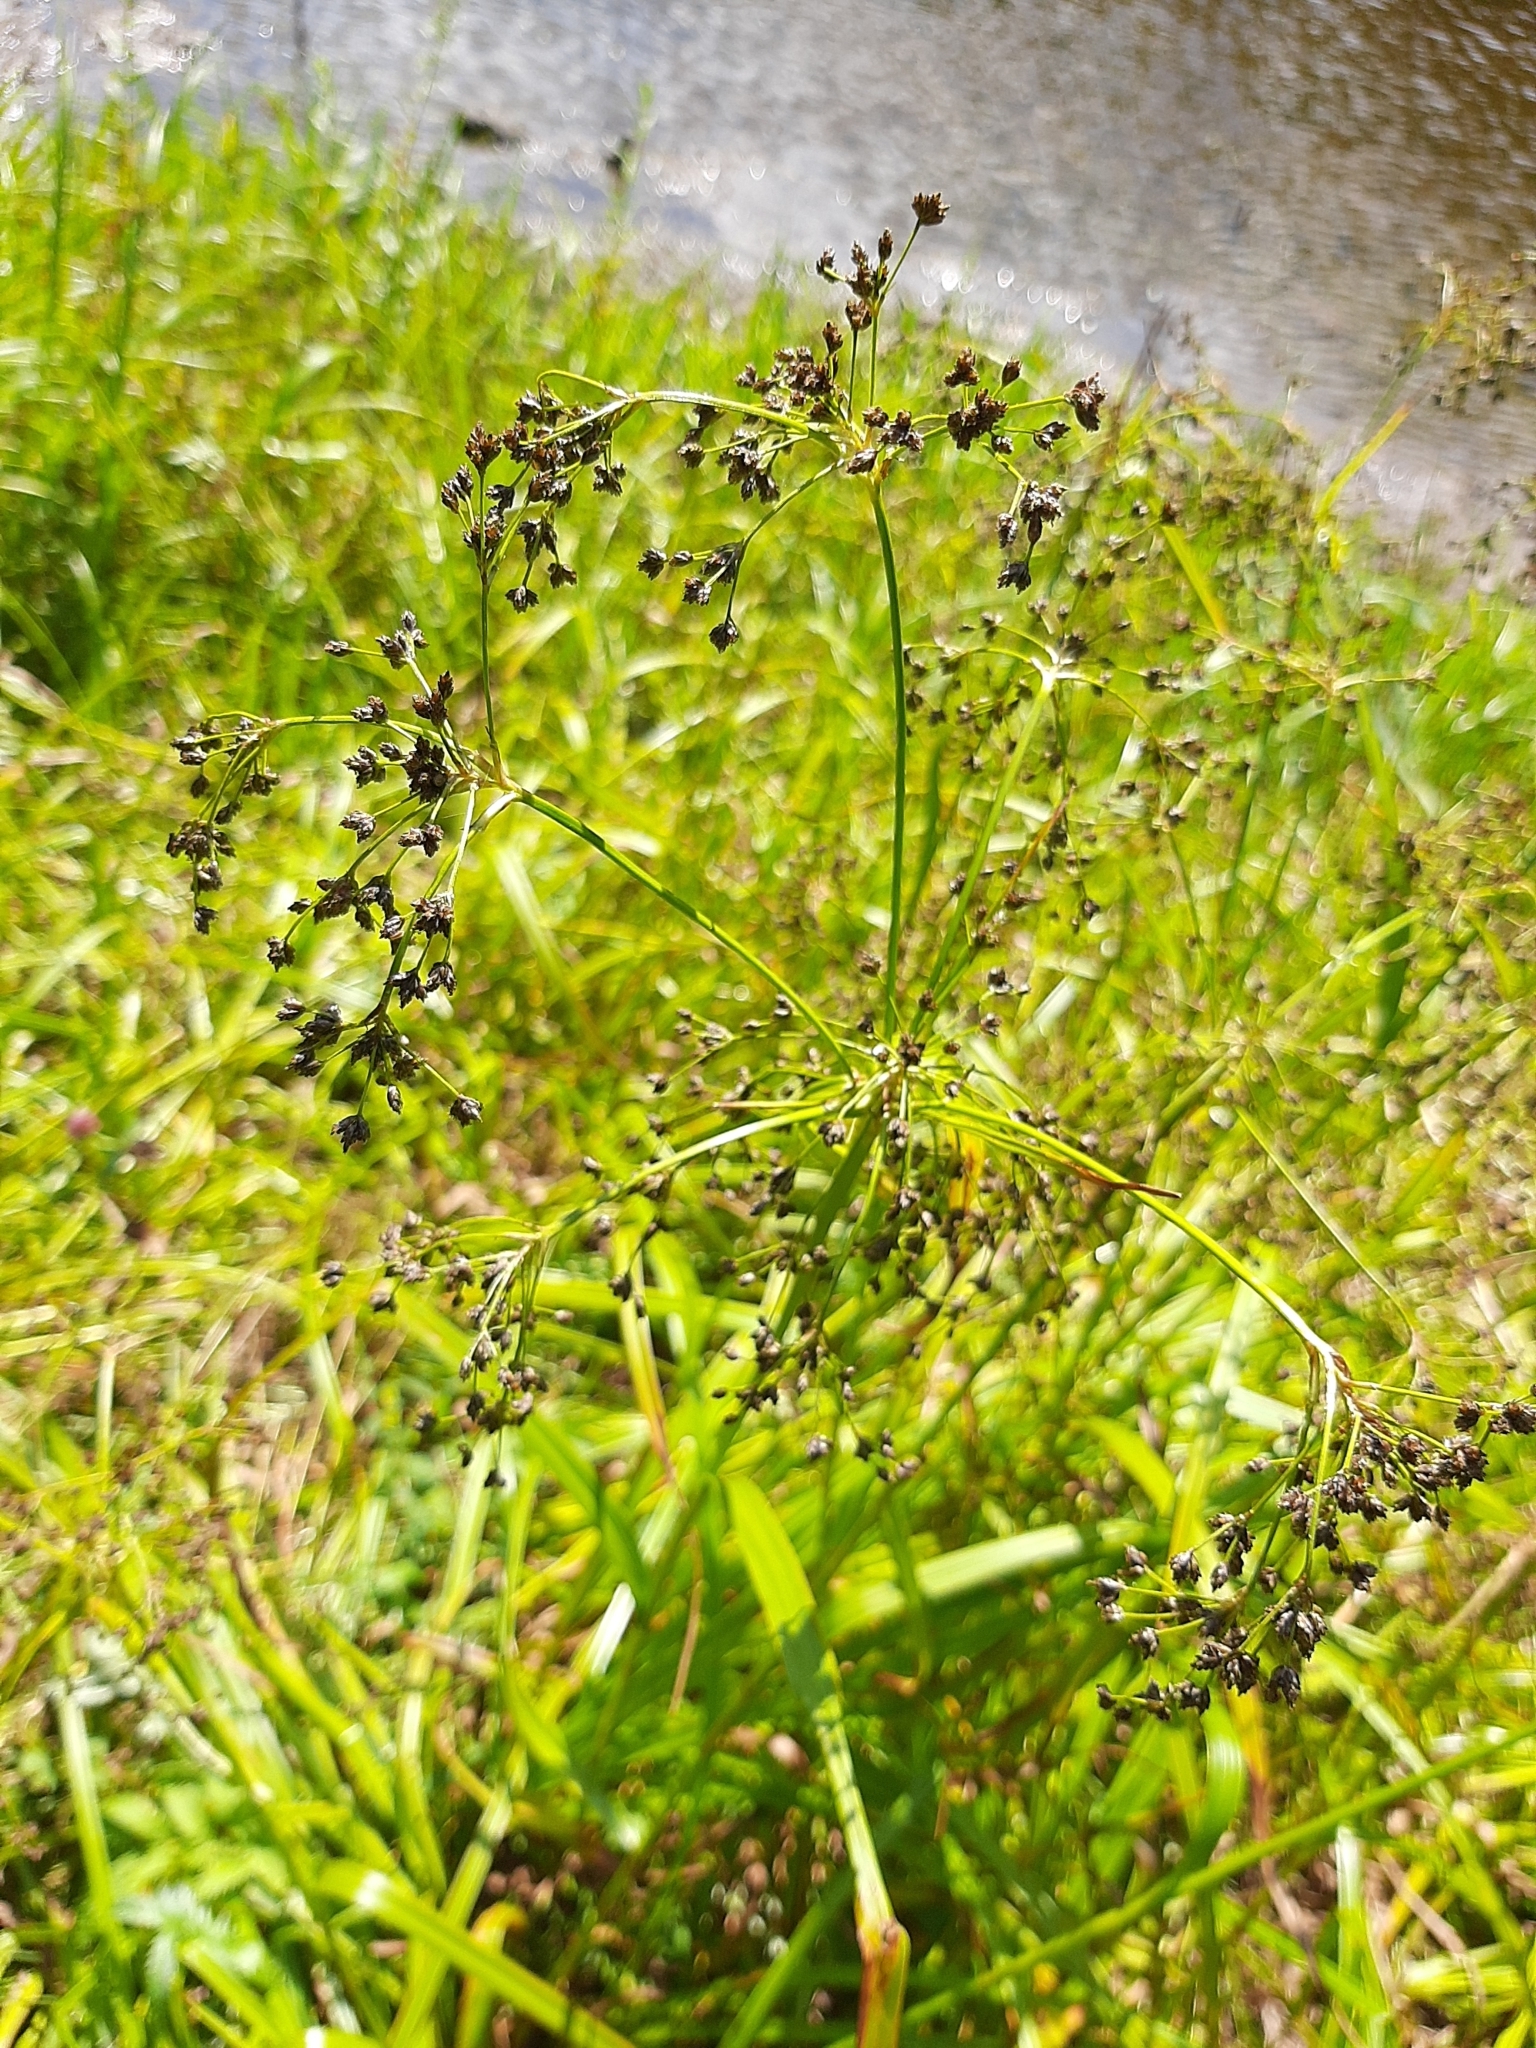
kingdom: Plantae
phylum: Tracheophyta
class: Liliopsida
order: Poales
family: Cyperaceae
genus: Scirpus
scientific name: Scirpus sylvaticus
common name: Wood club-rush
